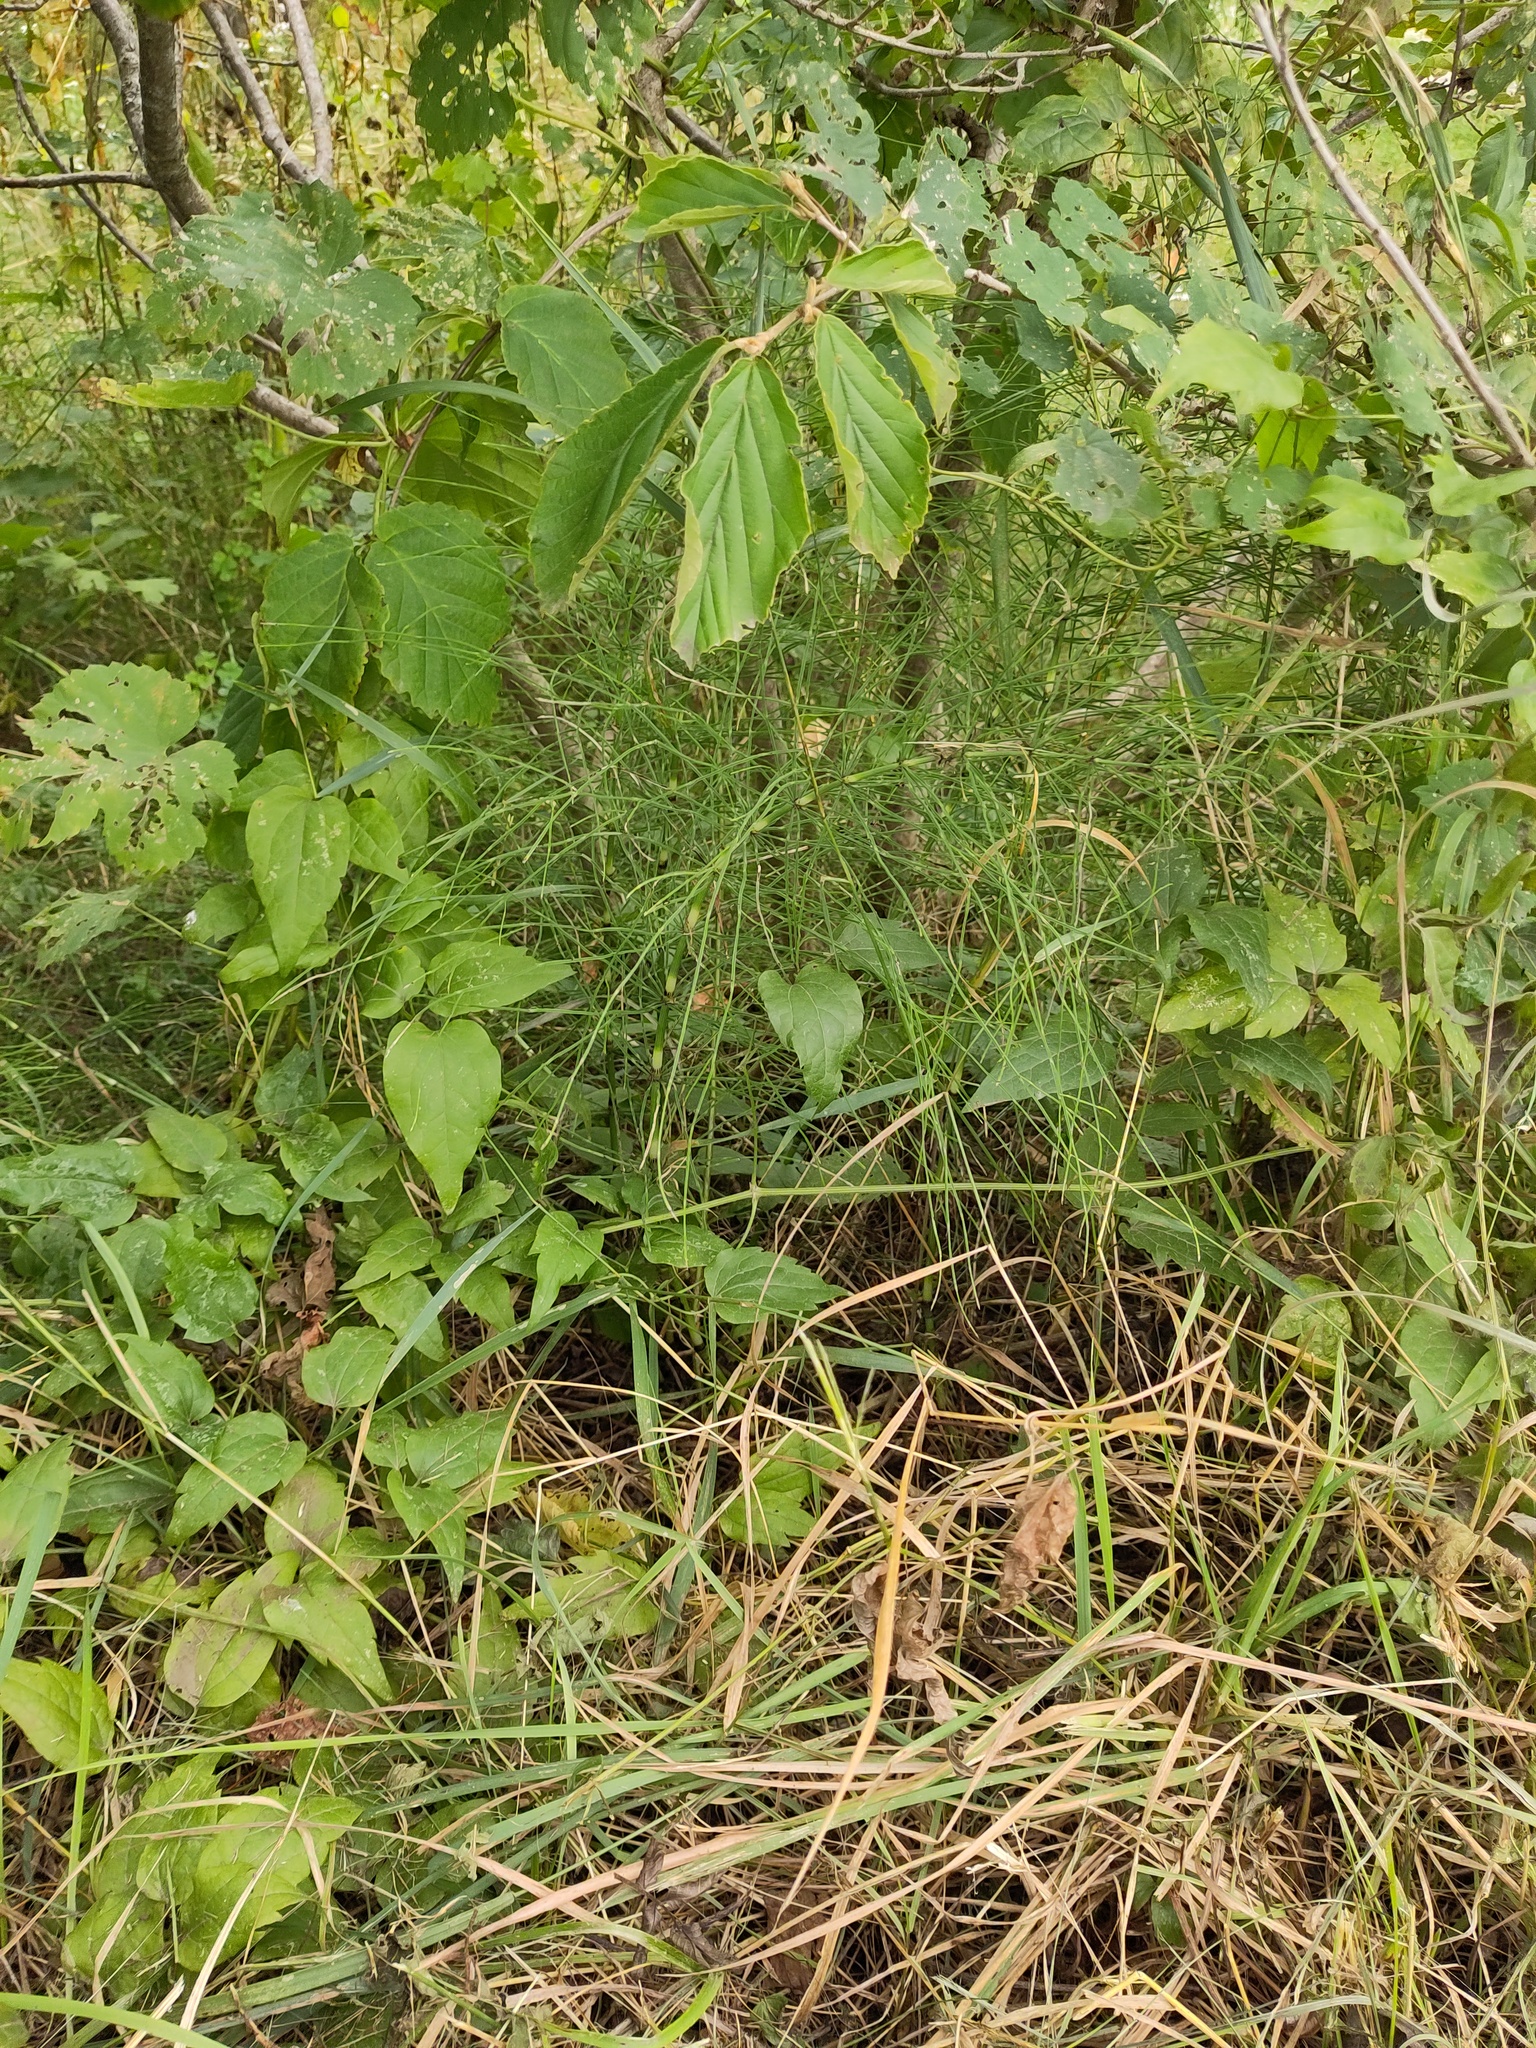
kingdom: Plantae
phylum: Tracheophyta
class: Polypodiopsida
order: Equisetales
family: Equisetaceae
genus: Equisetum
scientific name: Equisetum arvense
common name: Field horsetail
